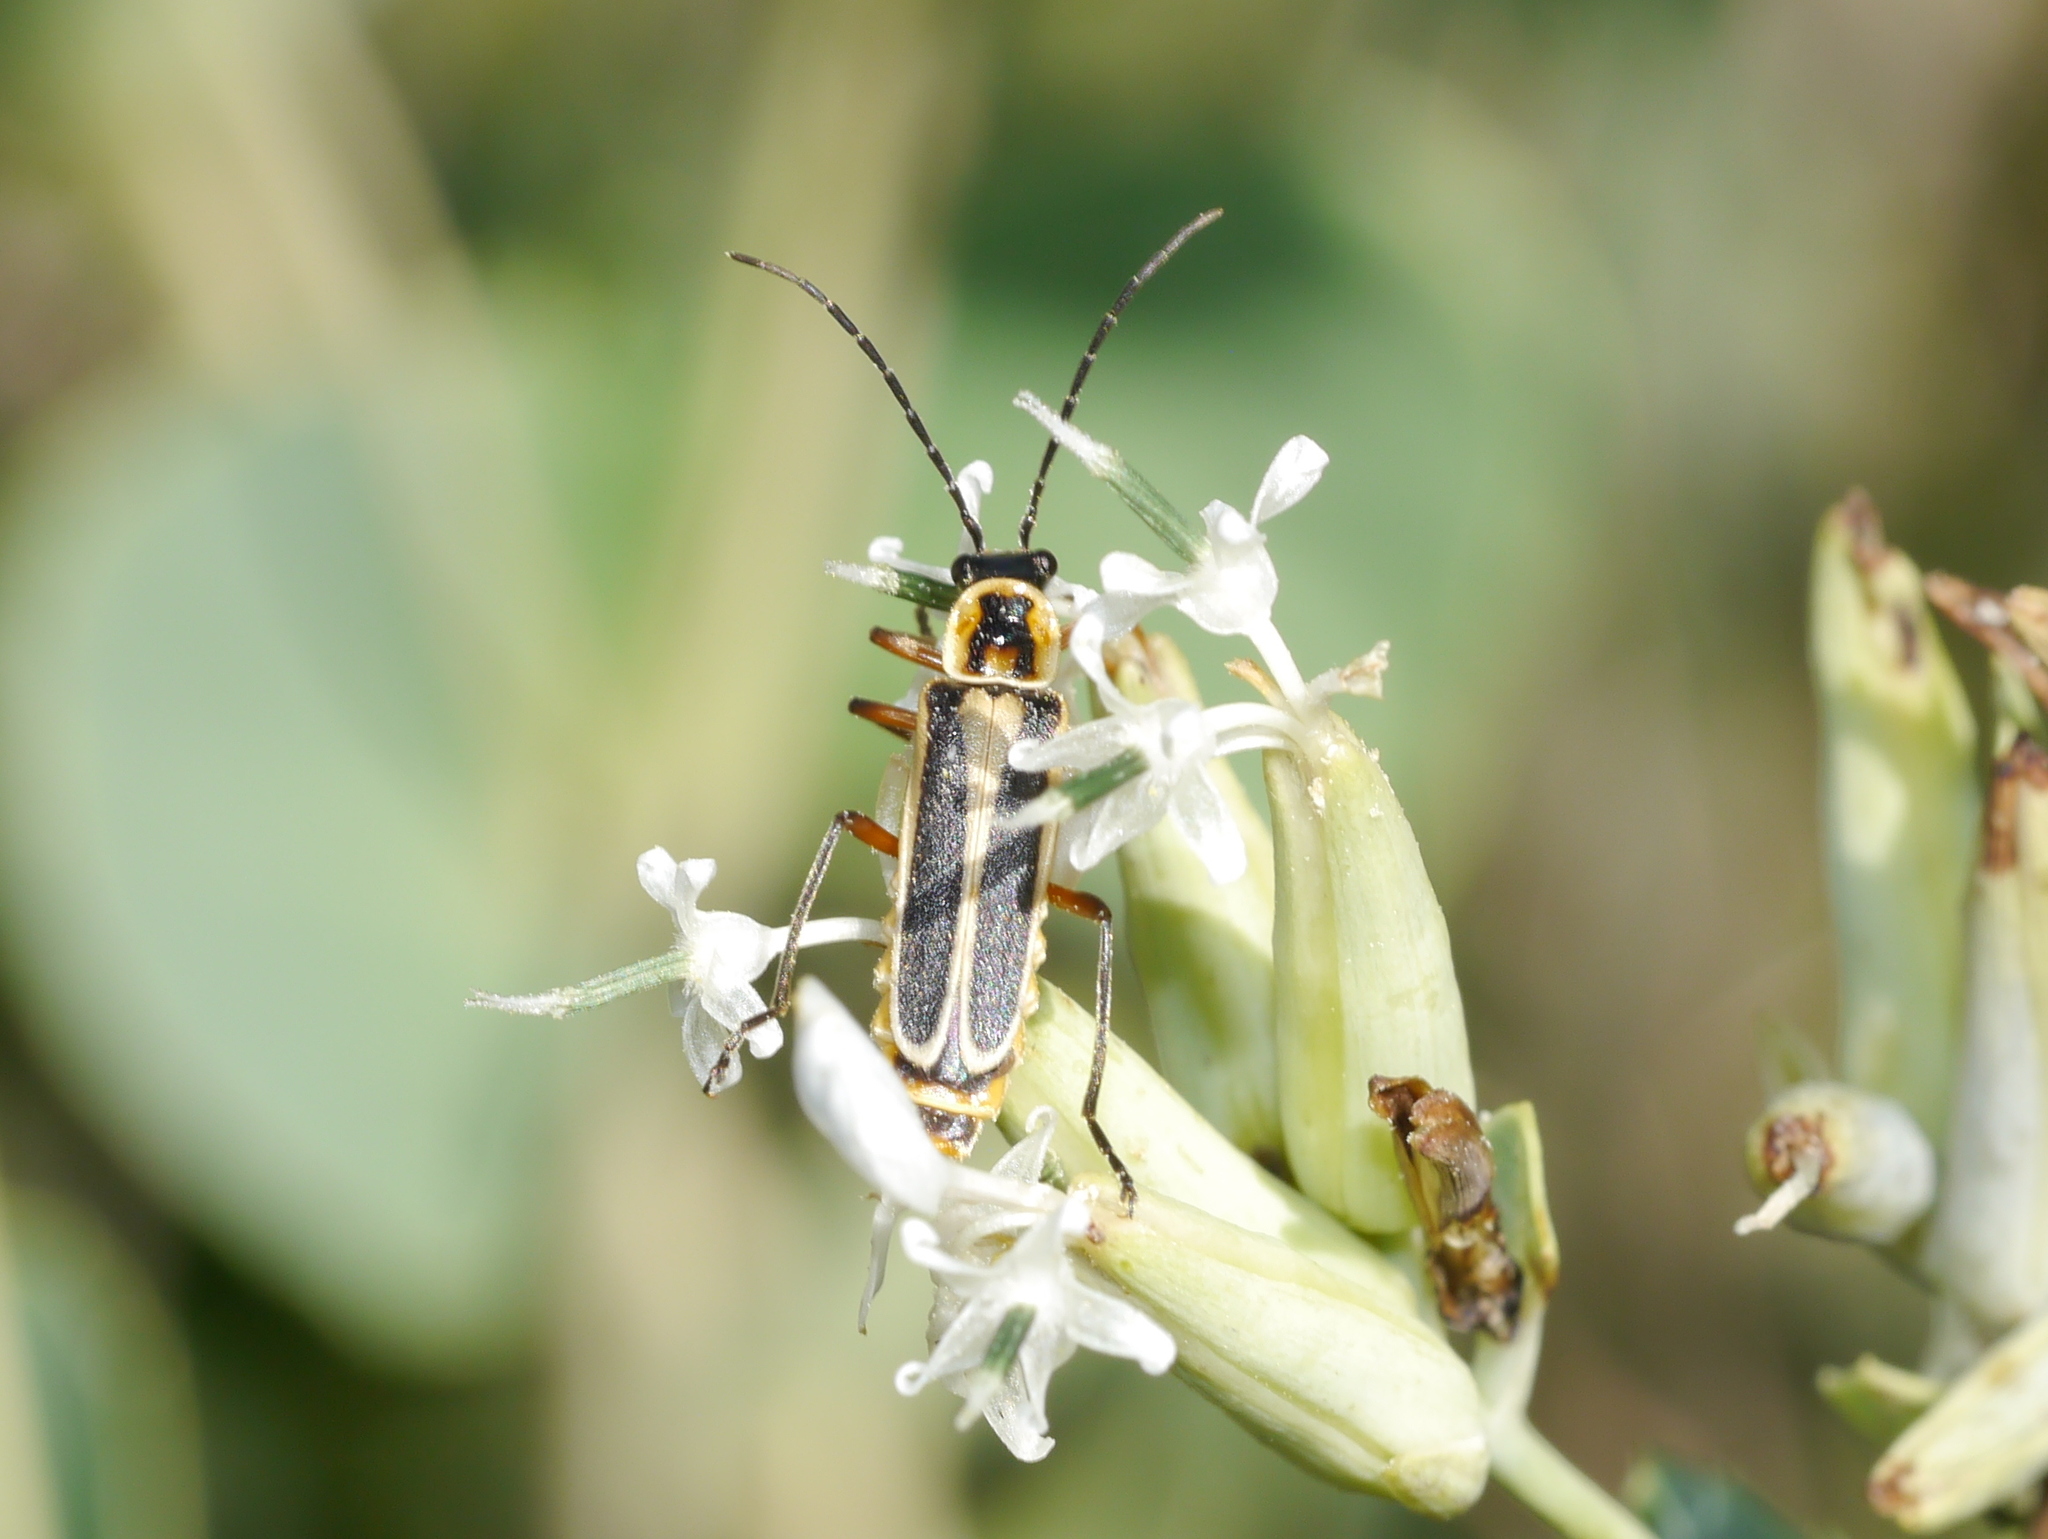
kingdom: Animalia
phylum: Arthropoda
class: Insecta
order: Coleoptera
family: Cantharidae
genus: Chauliognathus
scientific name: Chauliognathus lewisi
